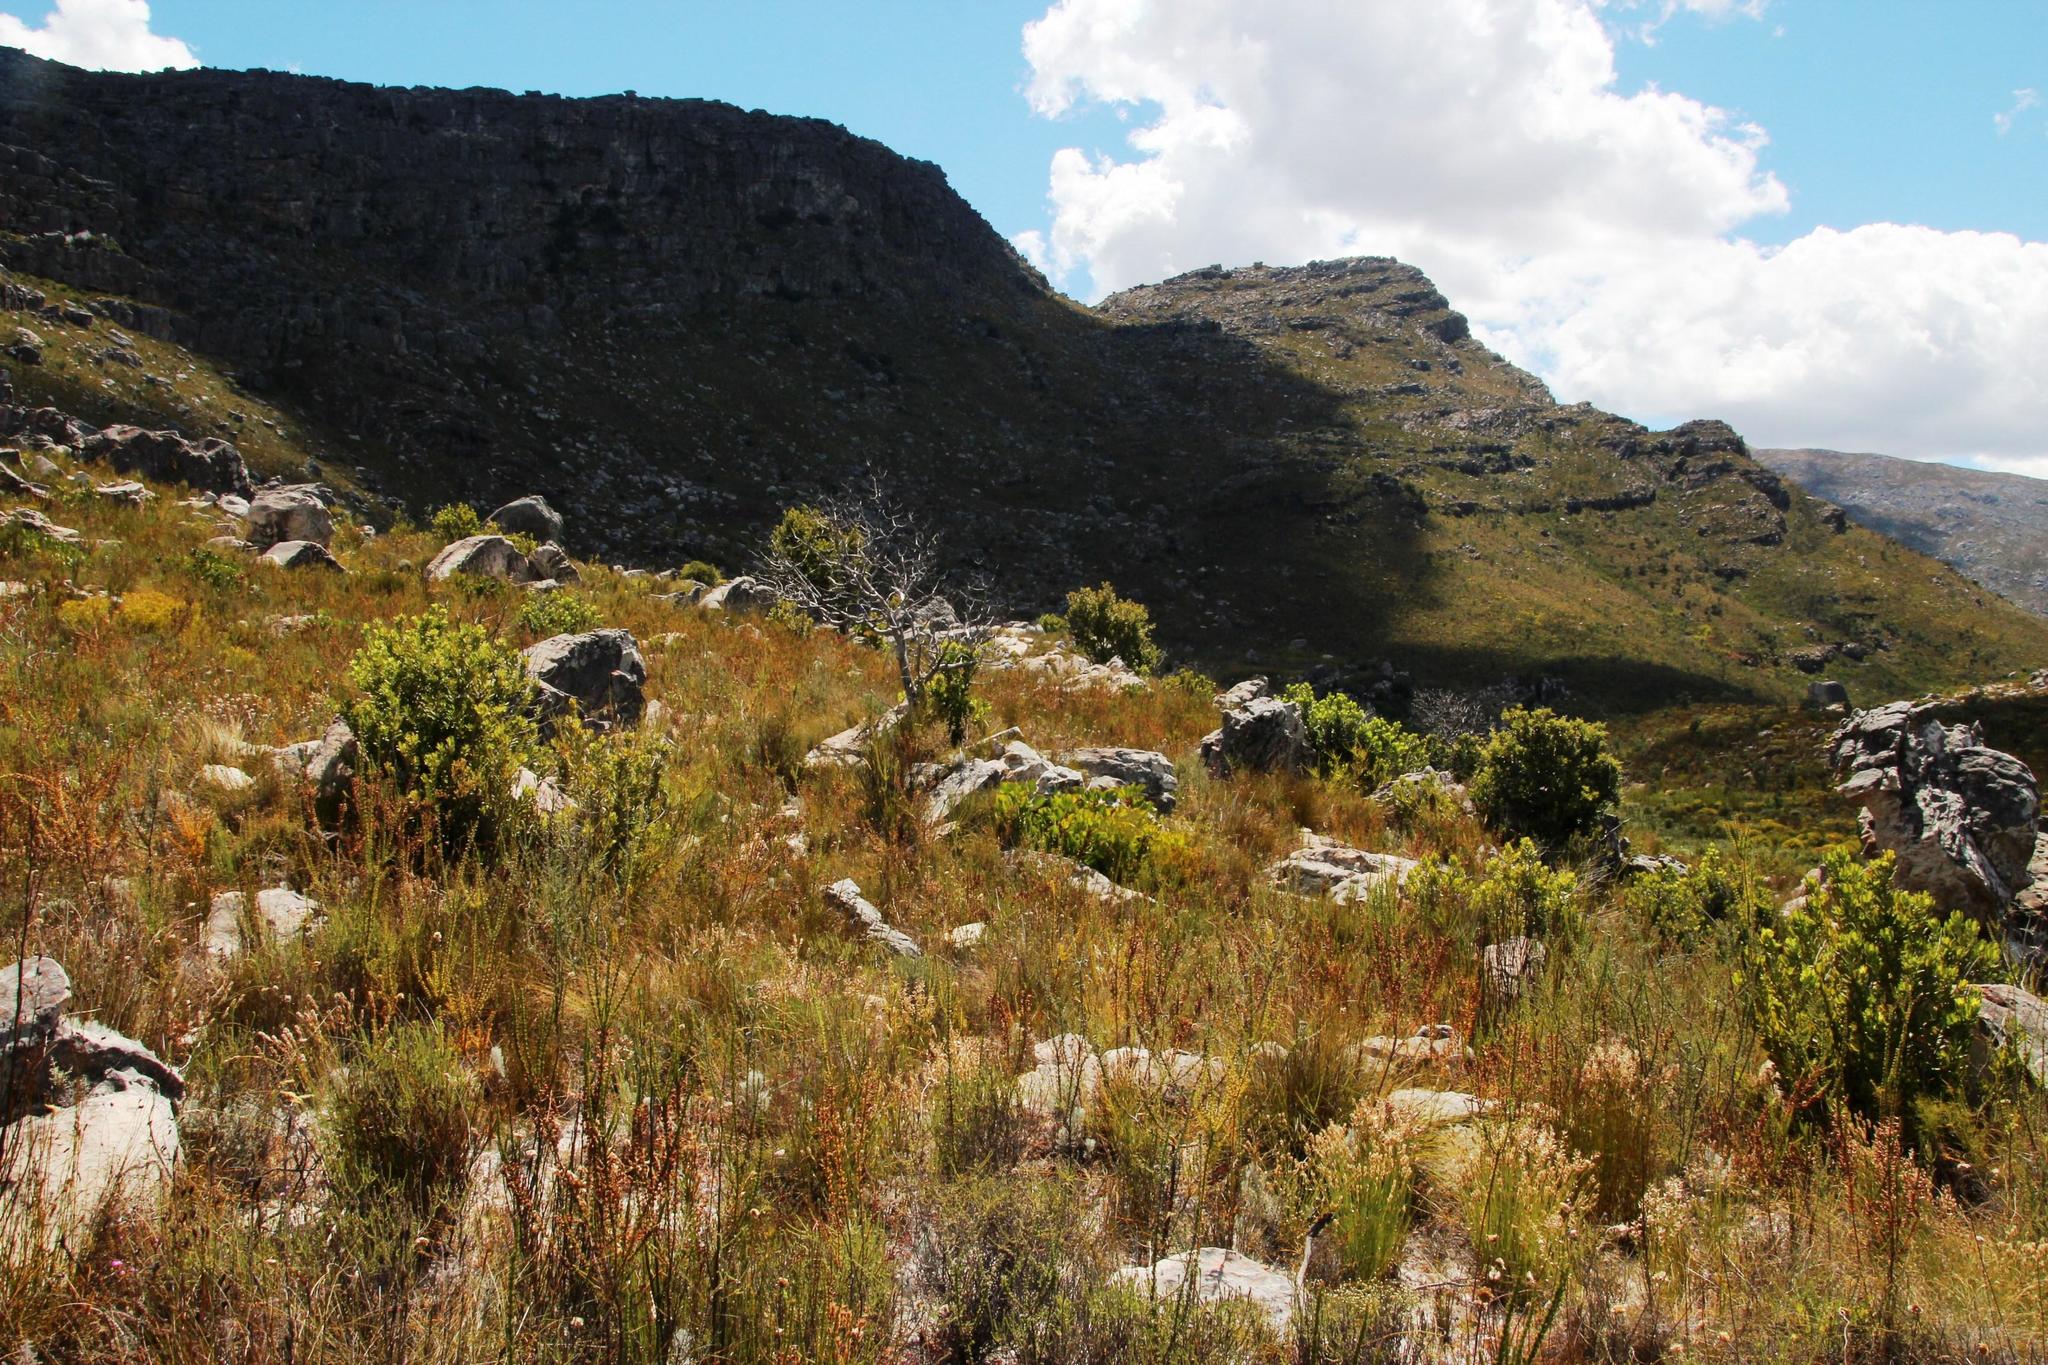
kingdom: Plantae
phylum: Tracheophyta
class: Magnoliopsida
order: Sapindales
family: Anacardiaceae
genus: Heeria
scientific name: Heeria argentea
